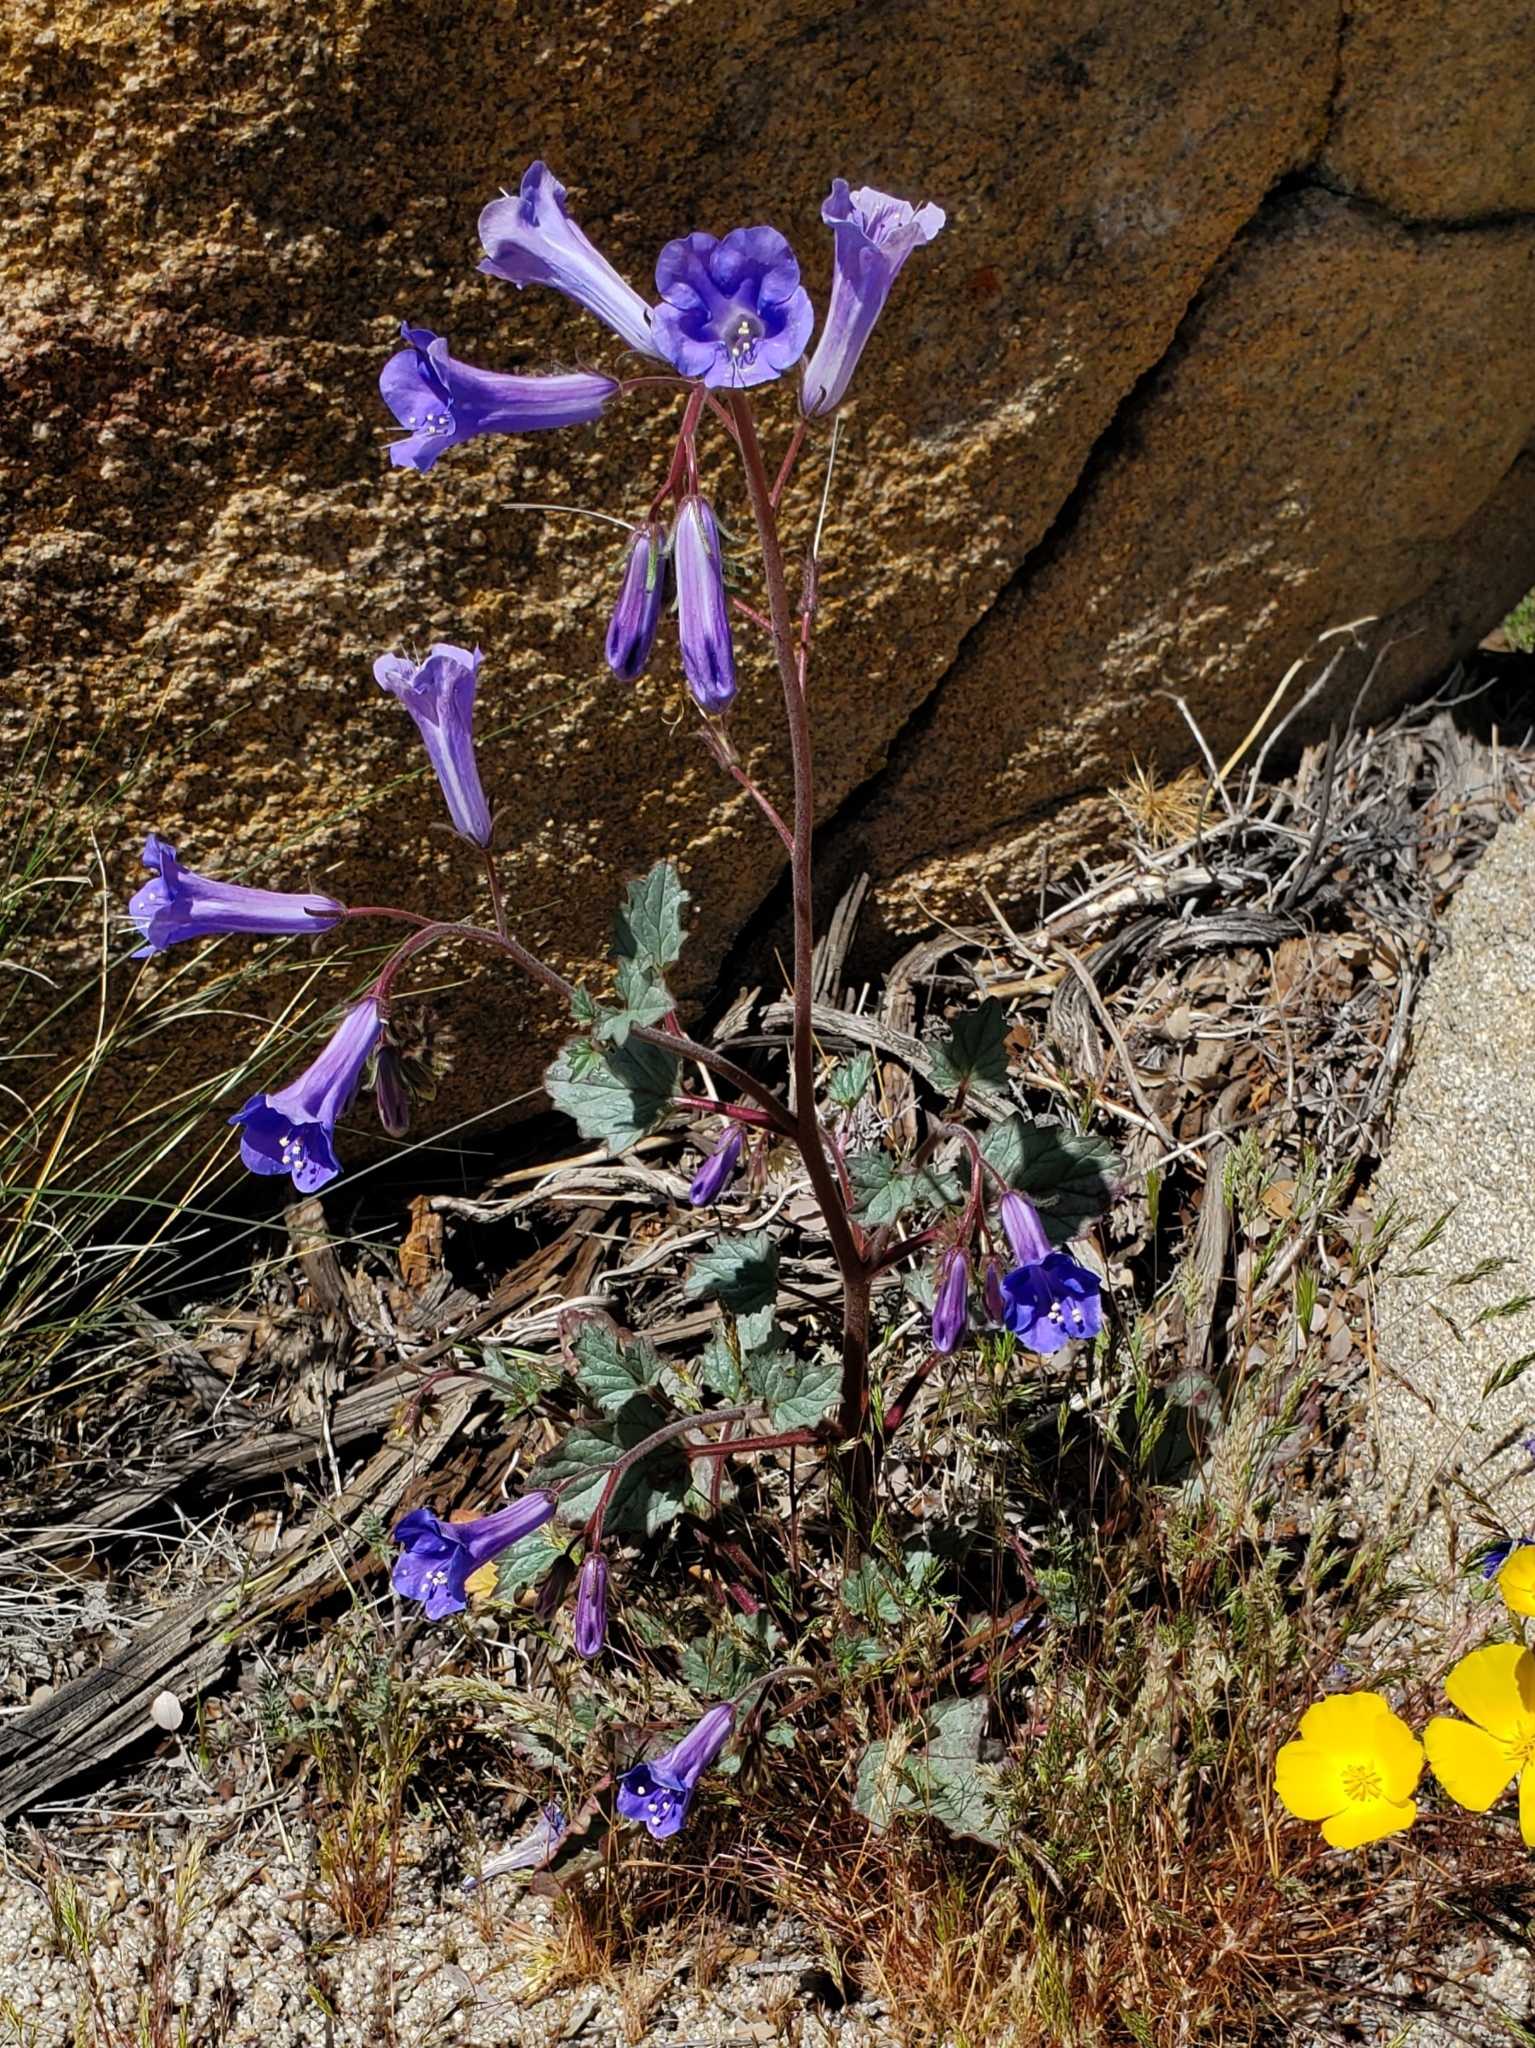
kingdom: Plantae
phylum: Tracheophyta
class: Magnoliopsida
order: Boraginales
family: Hydrophyllaceae
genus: Phacelia
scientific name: Phacelia campanularia
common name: California bluebell
